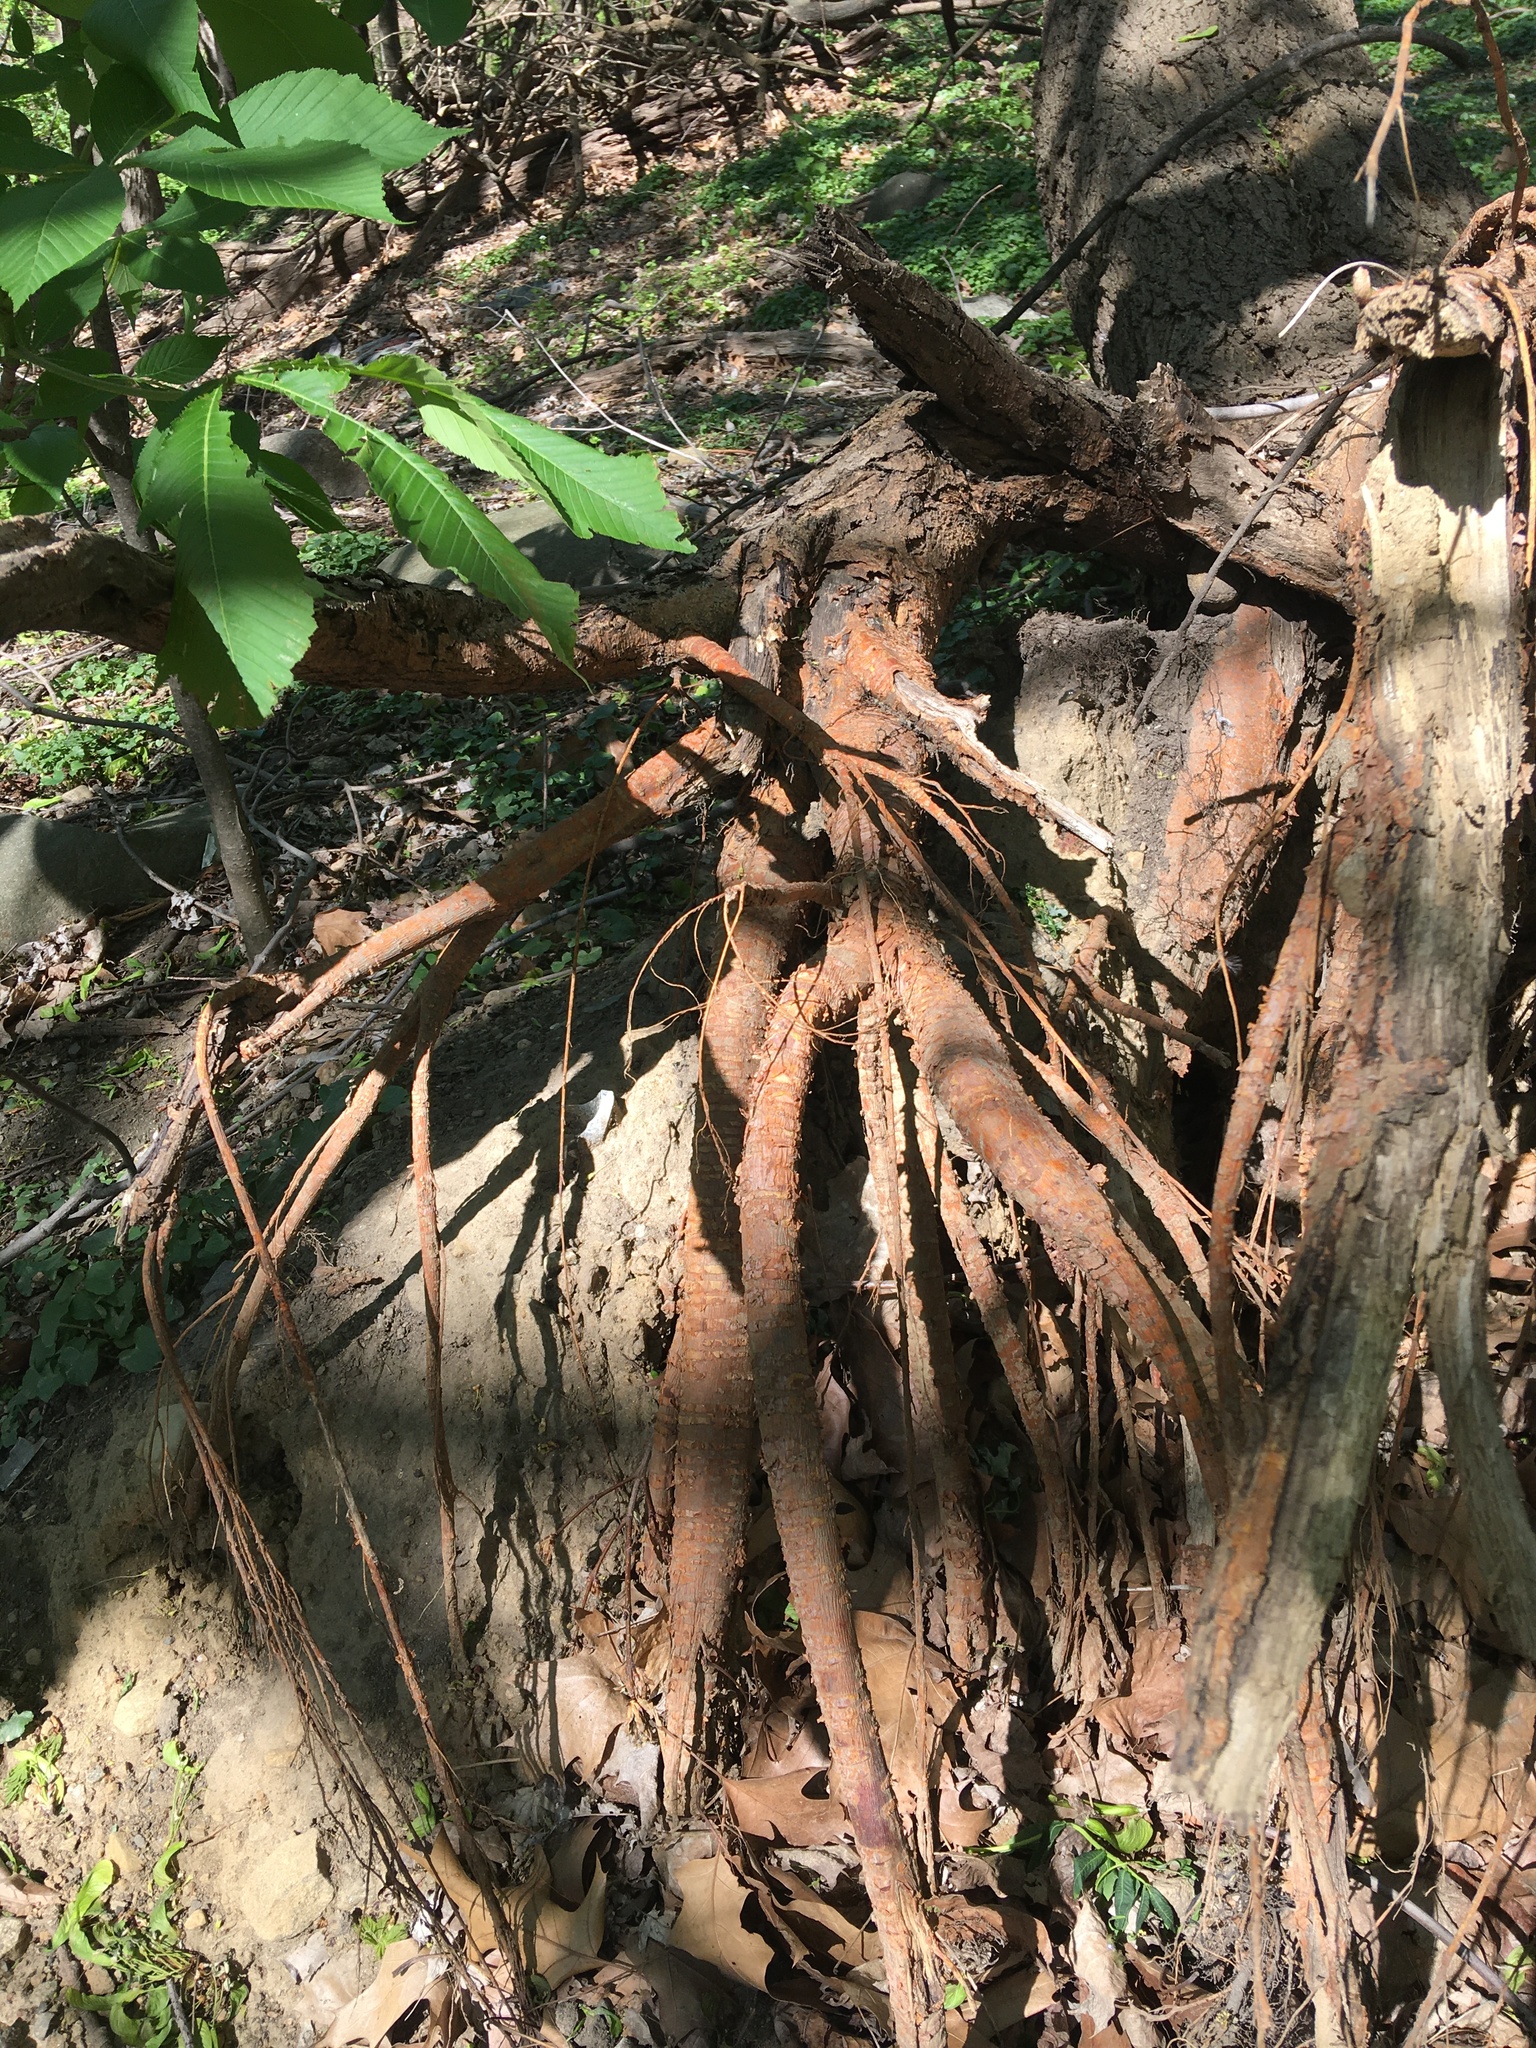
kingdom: Plantae
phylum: Tracheophyta
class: Magnoliopsida
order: Rosales
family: Moraceae
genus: Morus
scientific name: Morus alba
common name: White mulberry
